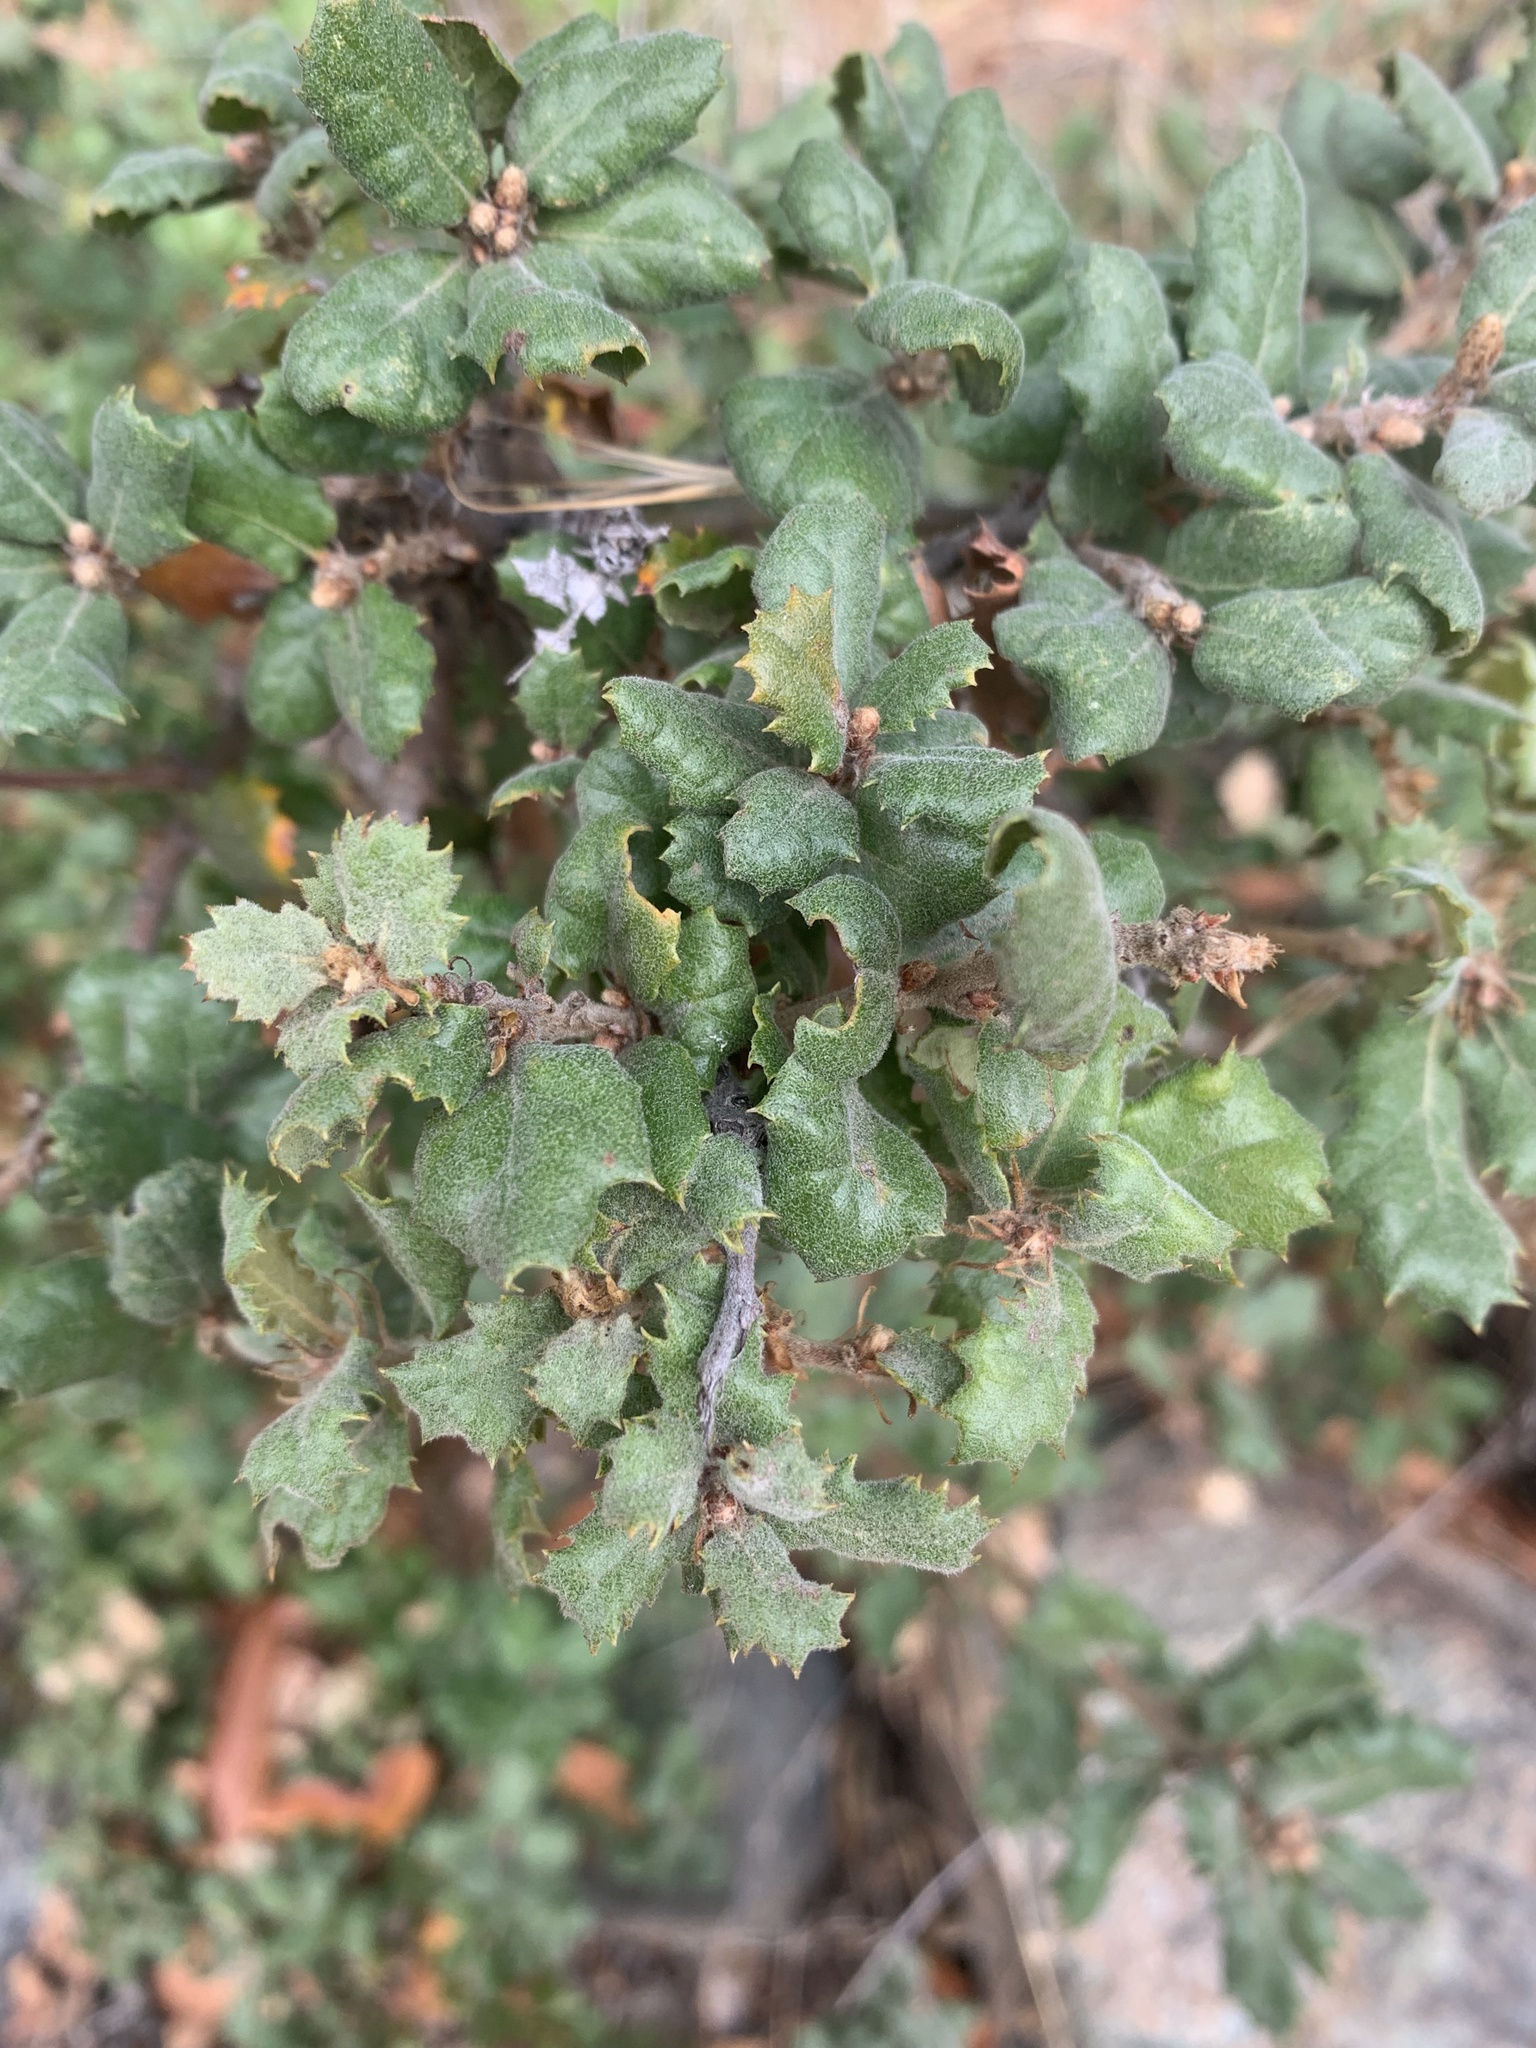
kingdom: Plantae
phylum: Tracheophyta
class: Magnoliopsida
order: Fagales
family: Fagaceae
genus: Quercus
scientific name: Quercus durata
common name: Leather oak
